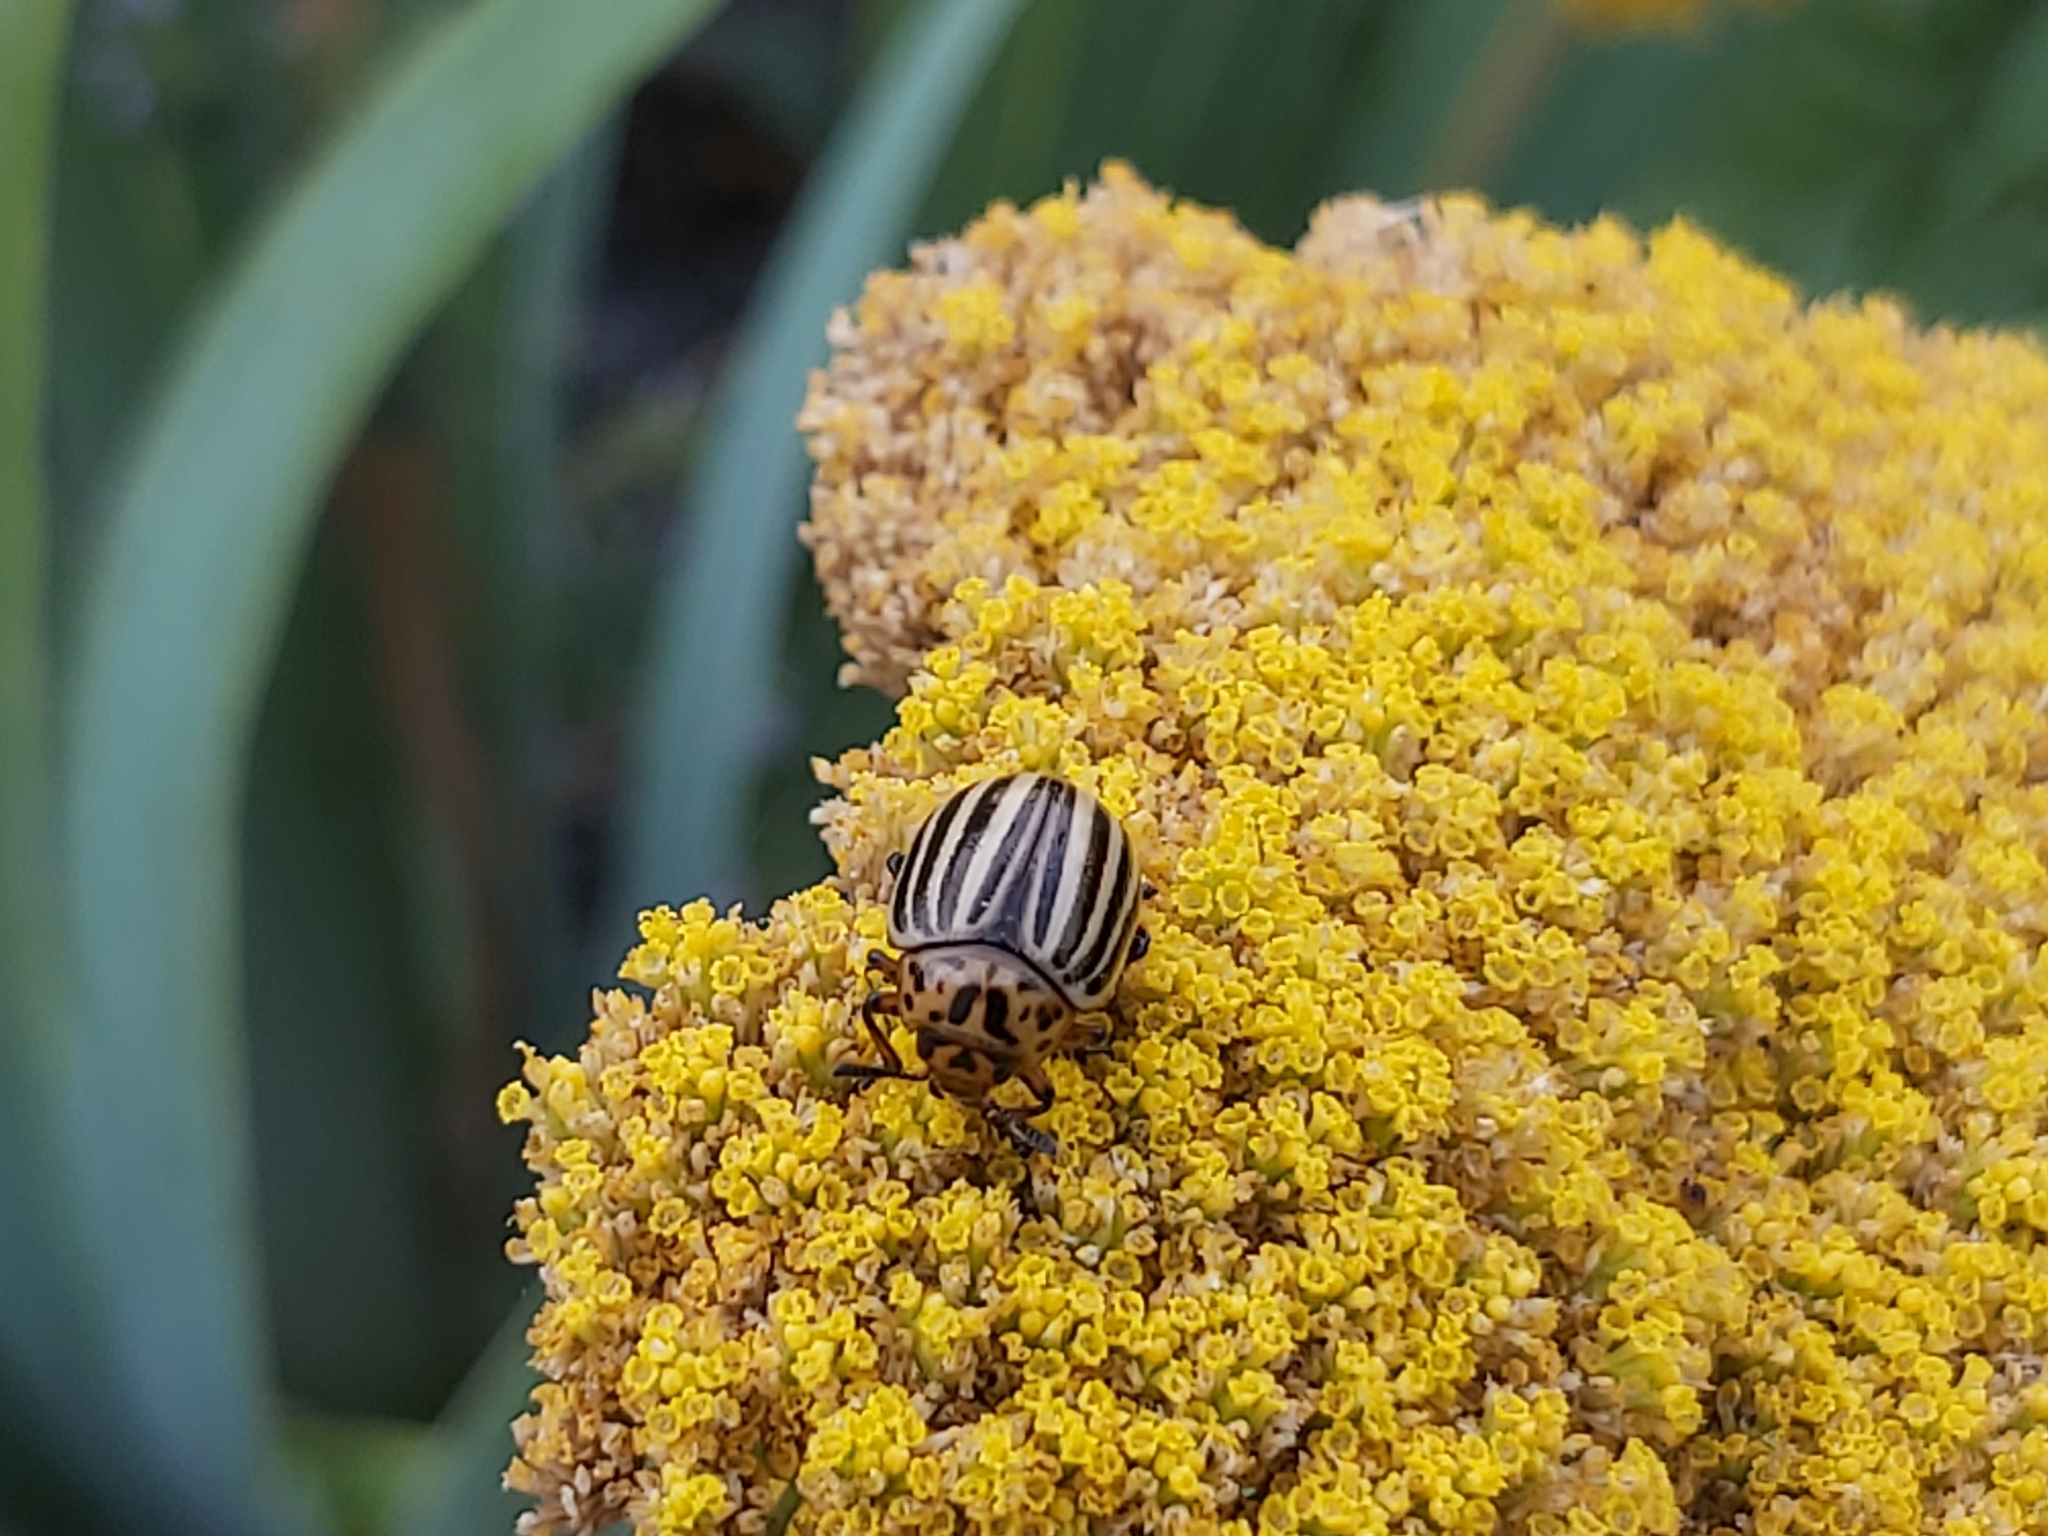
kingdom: Animalia
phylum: Arthropoda
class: Insecta
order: Coleoptera
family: Chrysomelidae
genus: Leptinotarsa
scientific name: Leptinotarsa decemlineata
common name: Colorado potato beetle
